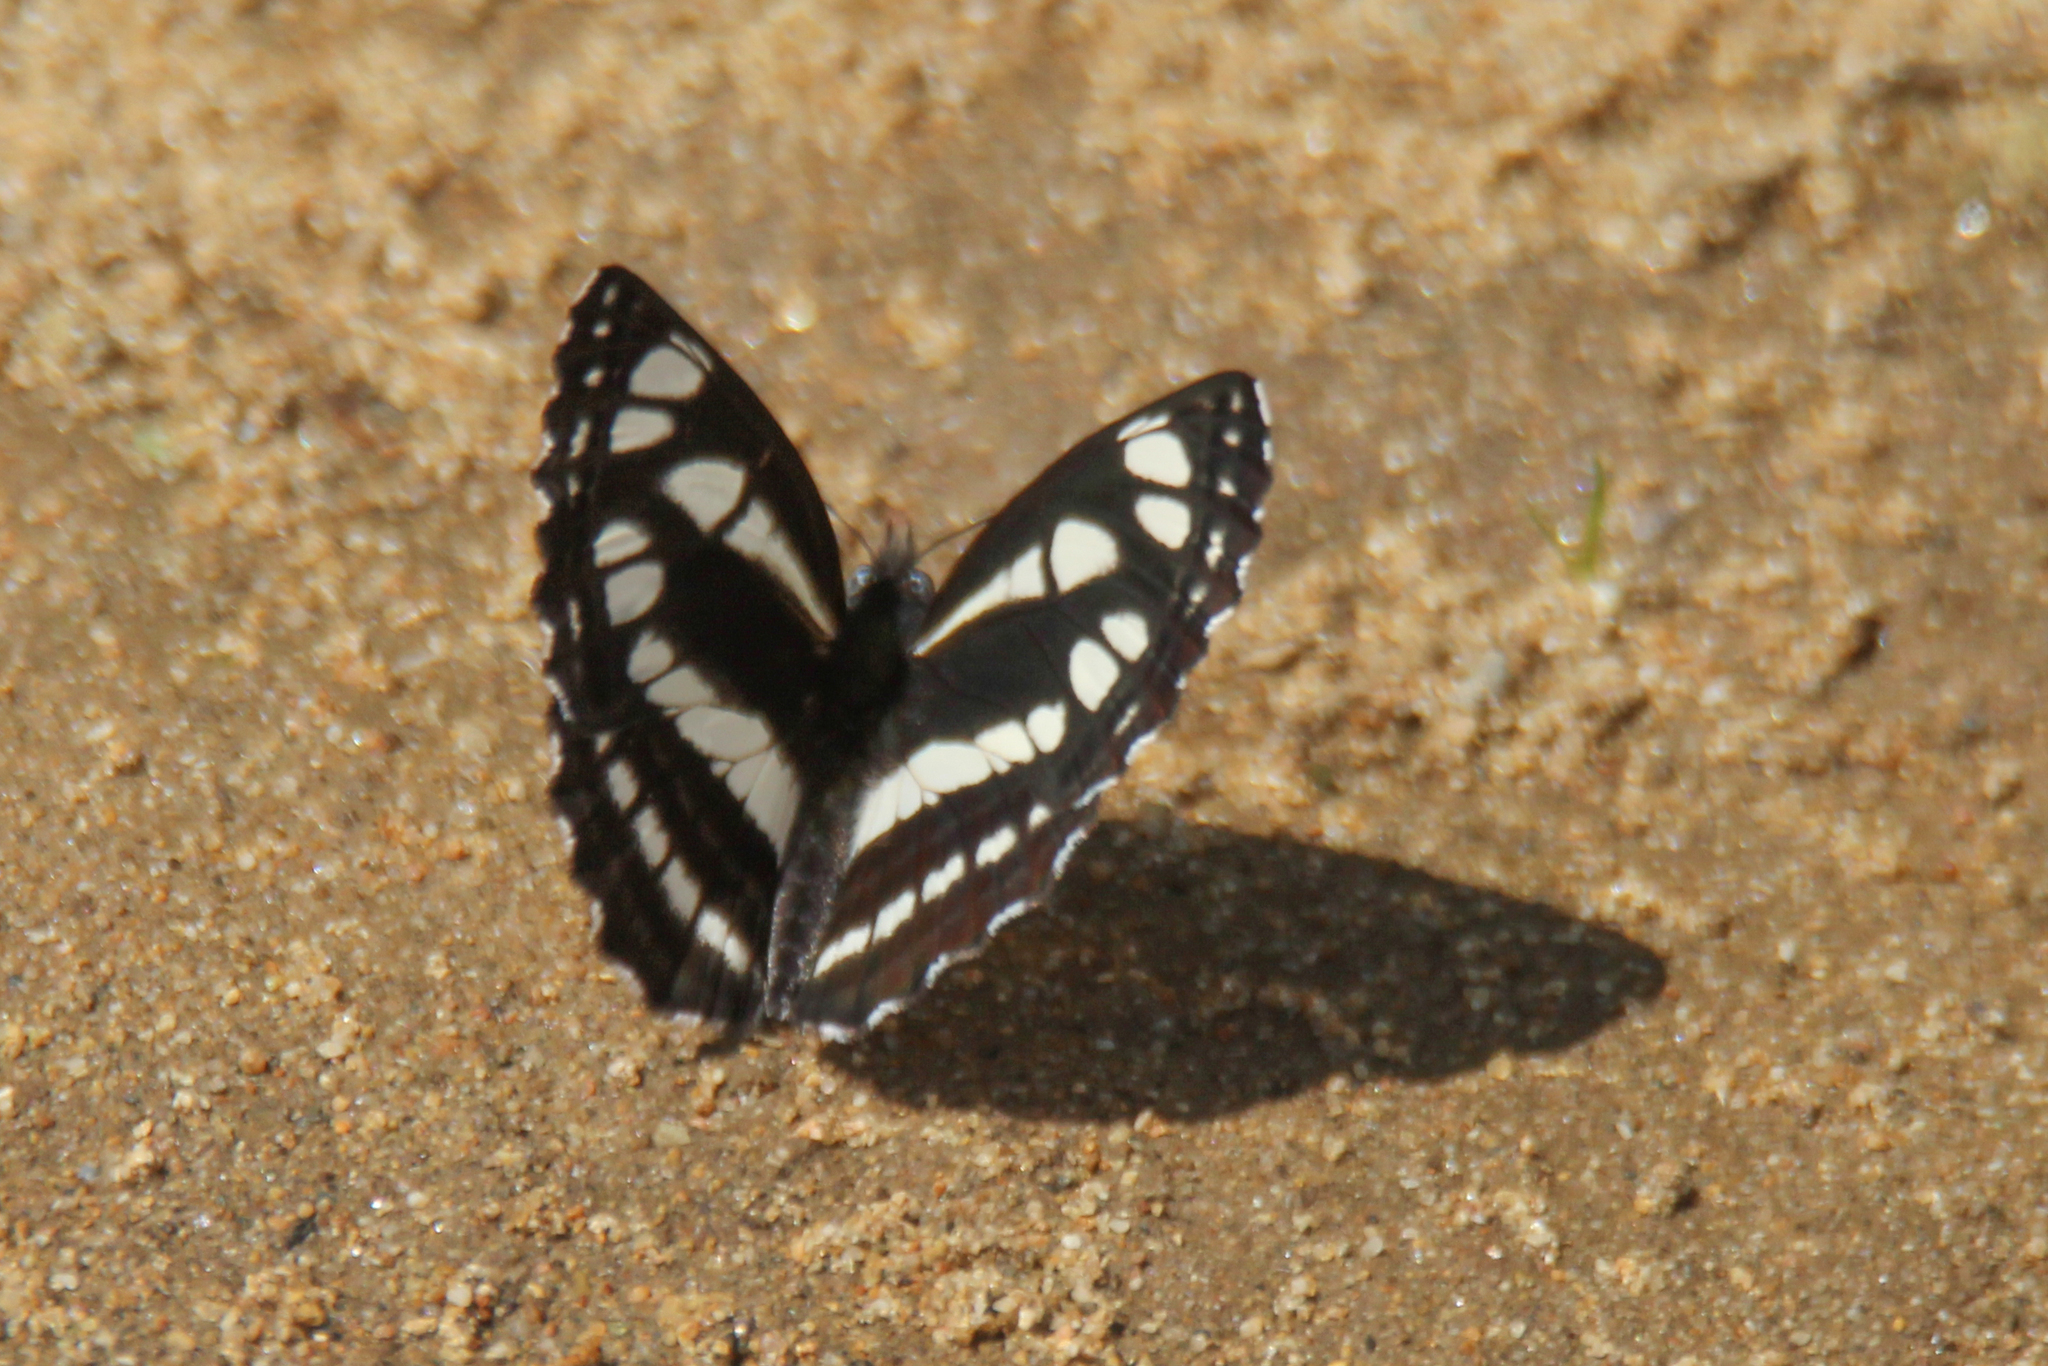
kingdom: Animalia
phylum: Arthropoda
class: Insecta
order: Lepidoptera
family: Nymphalidae
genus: Neptis
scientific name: Neptis sappho
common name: Common glider
